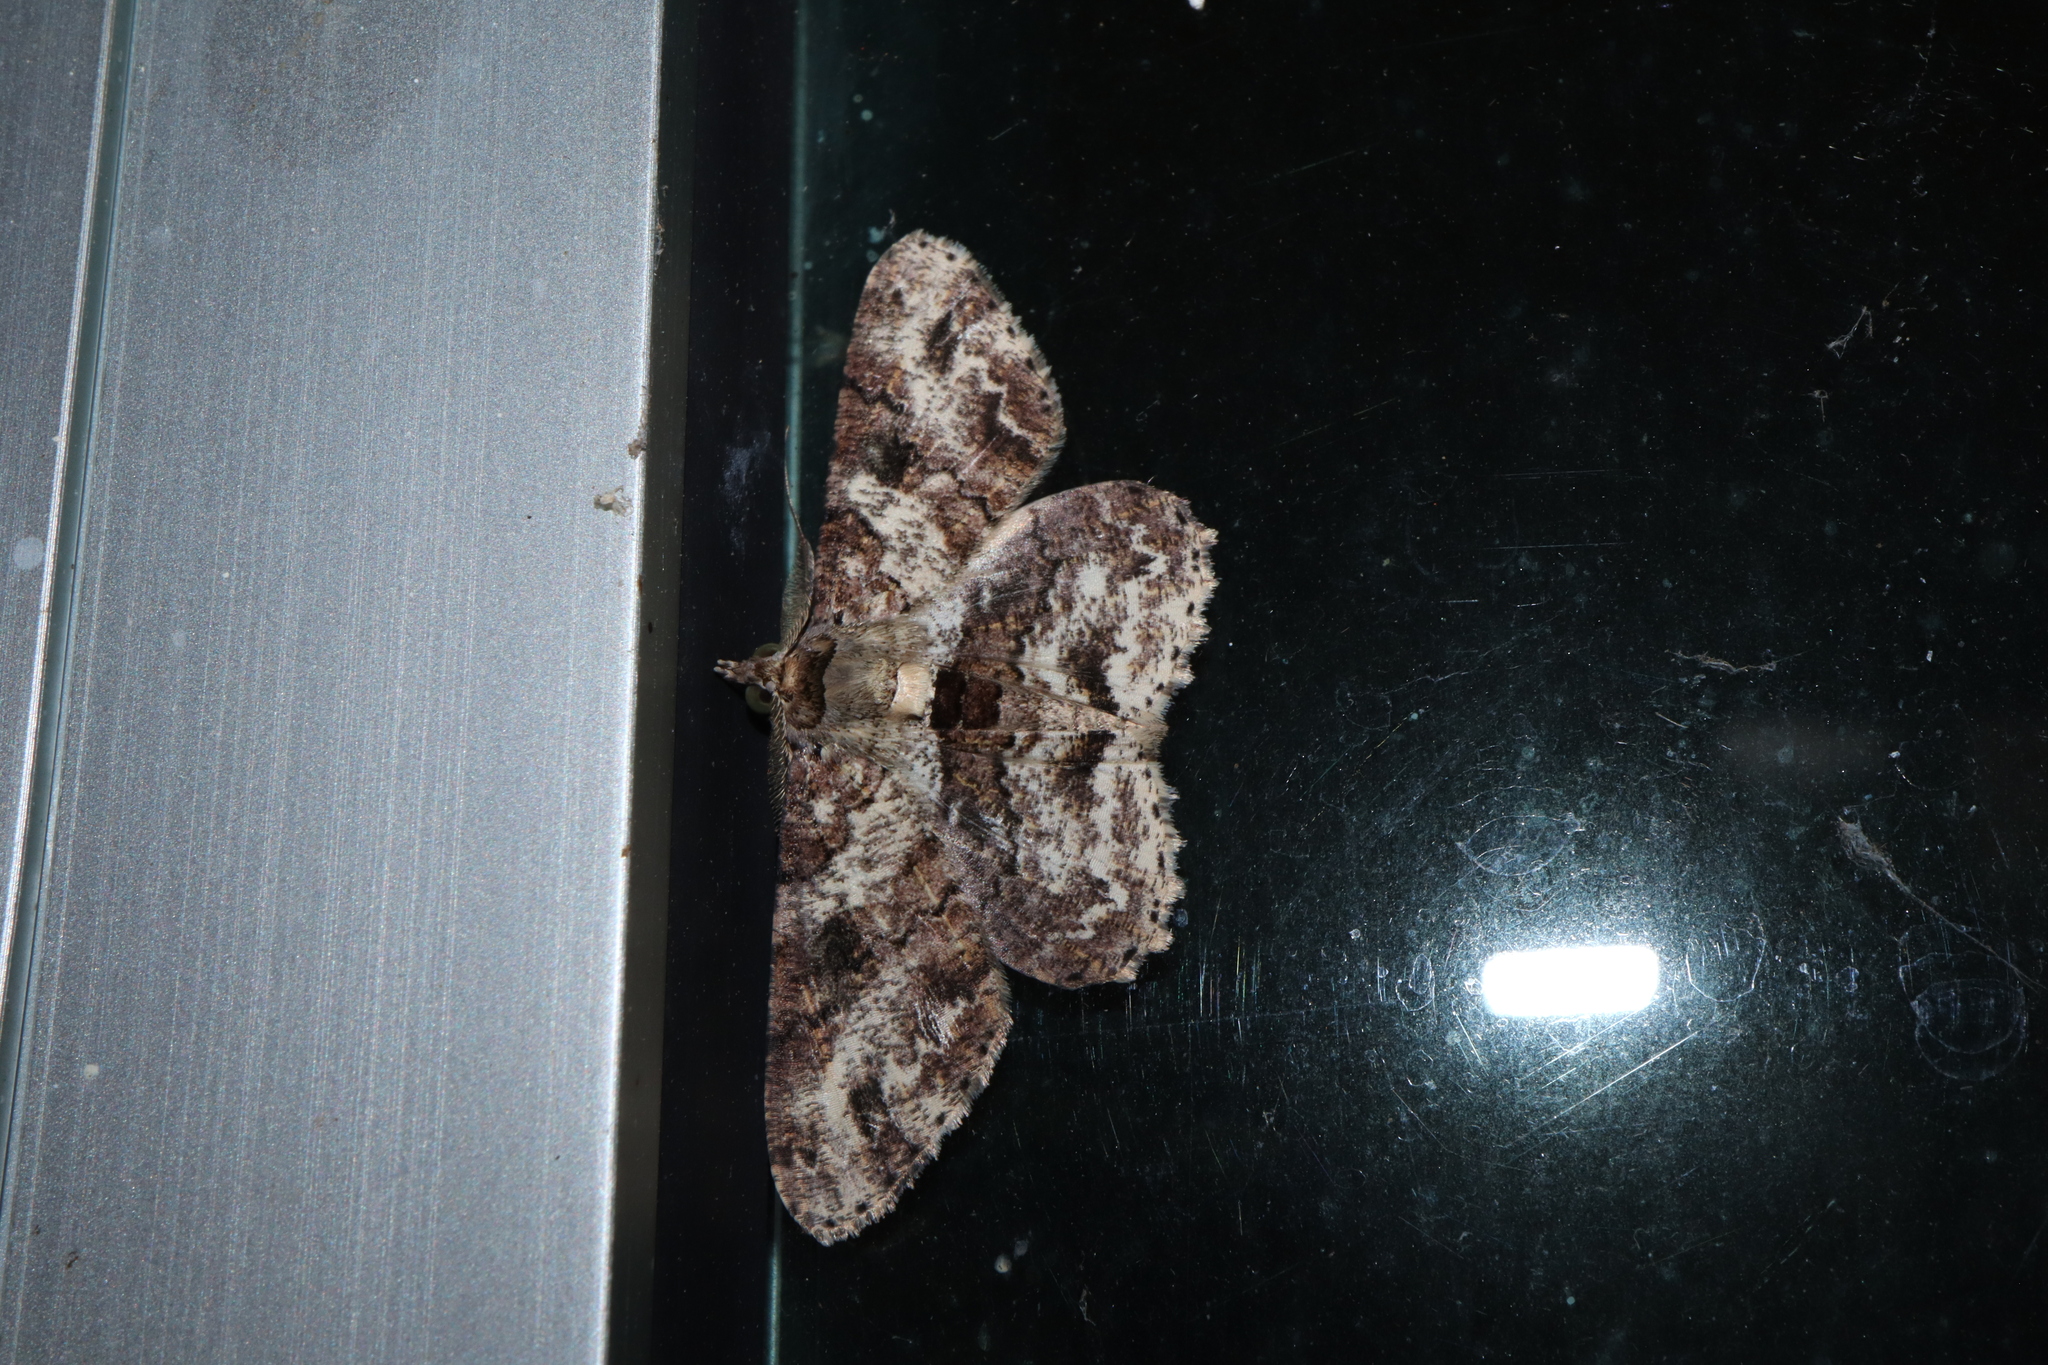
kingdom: Animalia
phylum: Arthropoda
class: Insecta
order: Lepidoptera
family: Geometridae
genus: Cleora
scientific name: Cleora repetita
